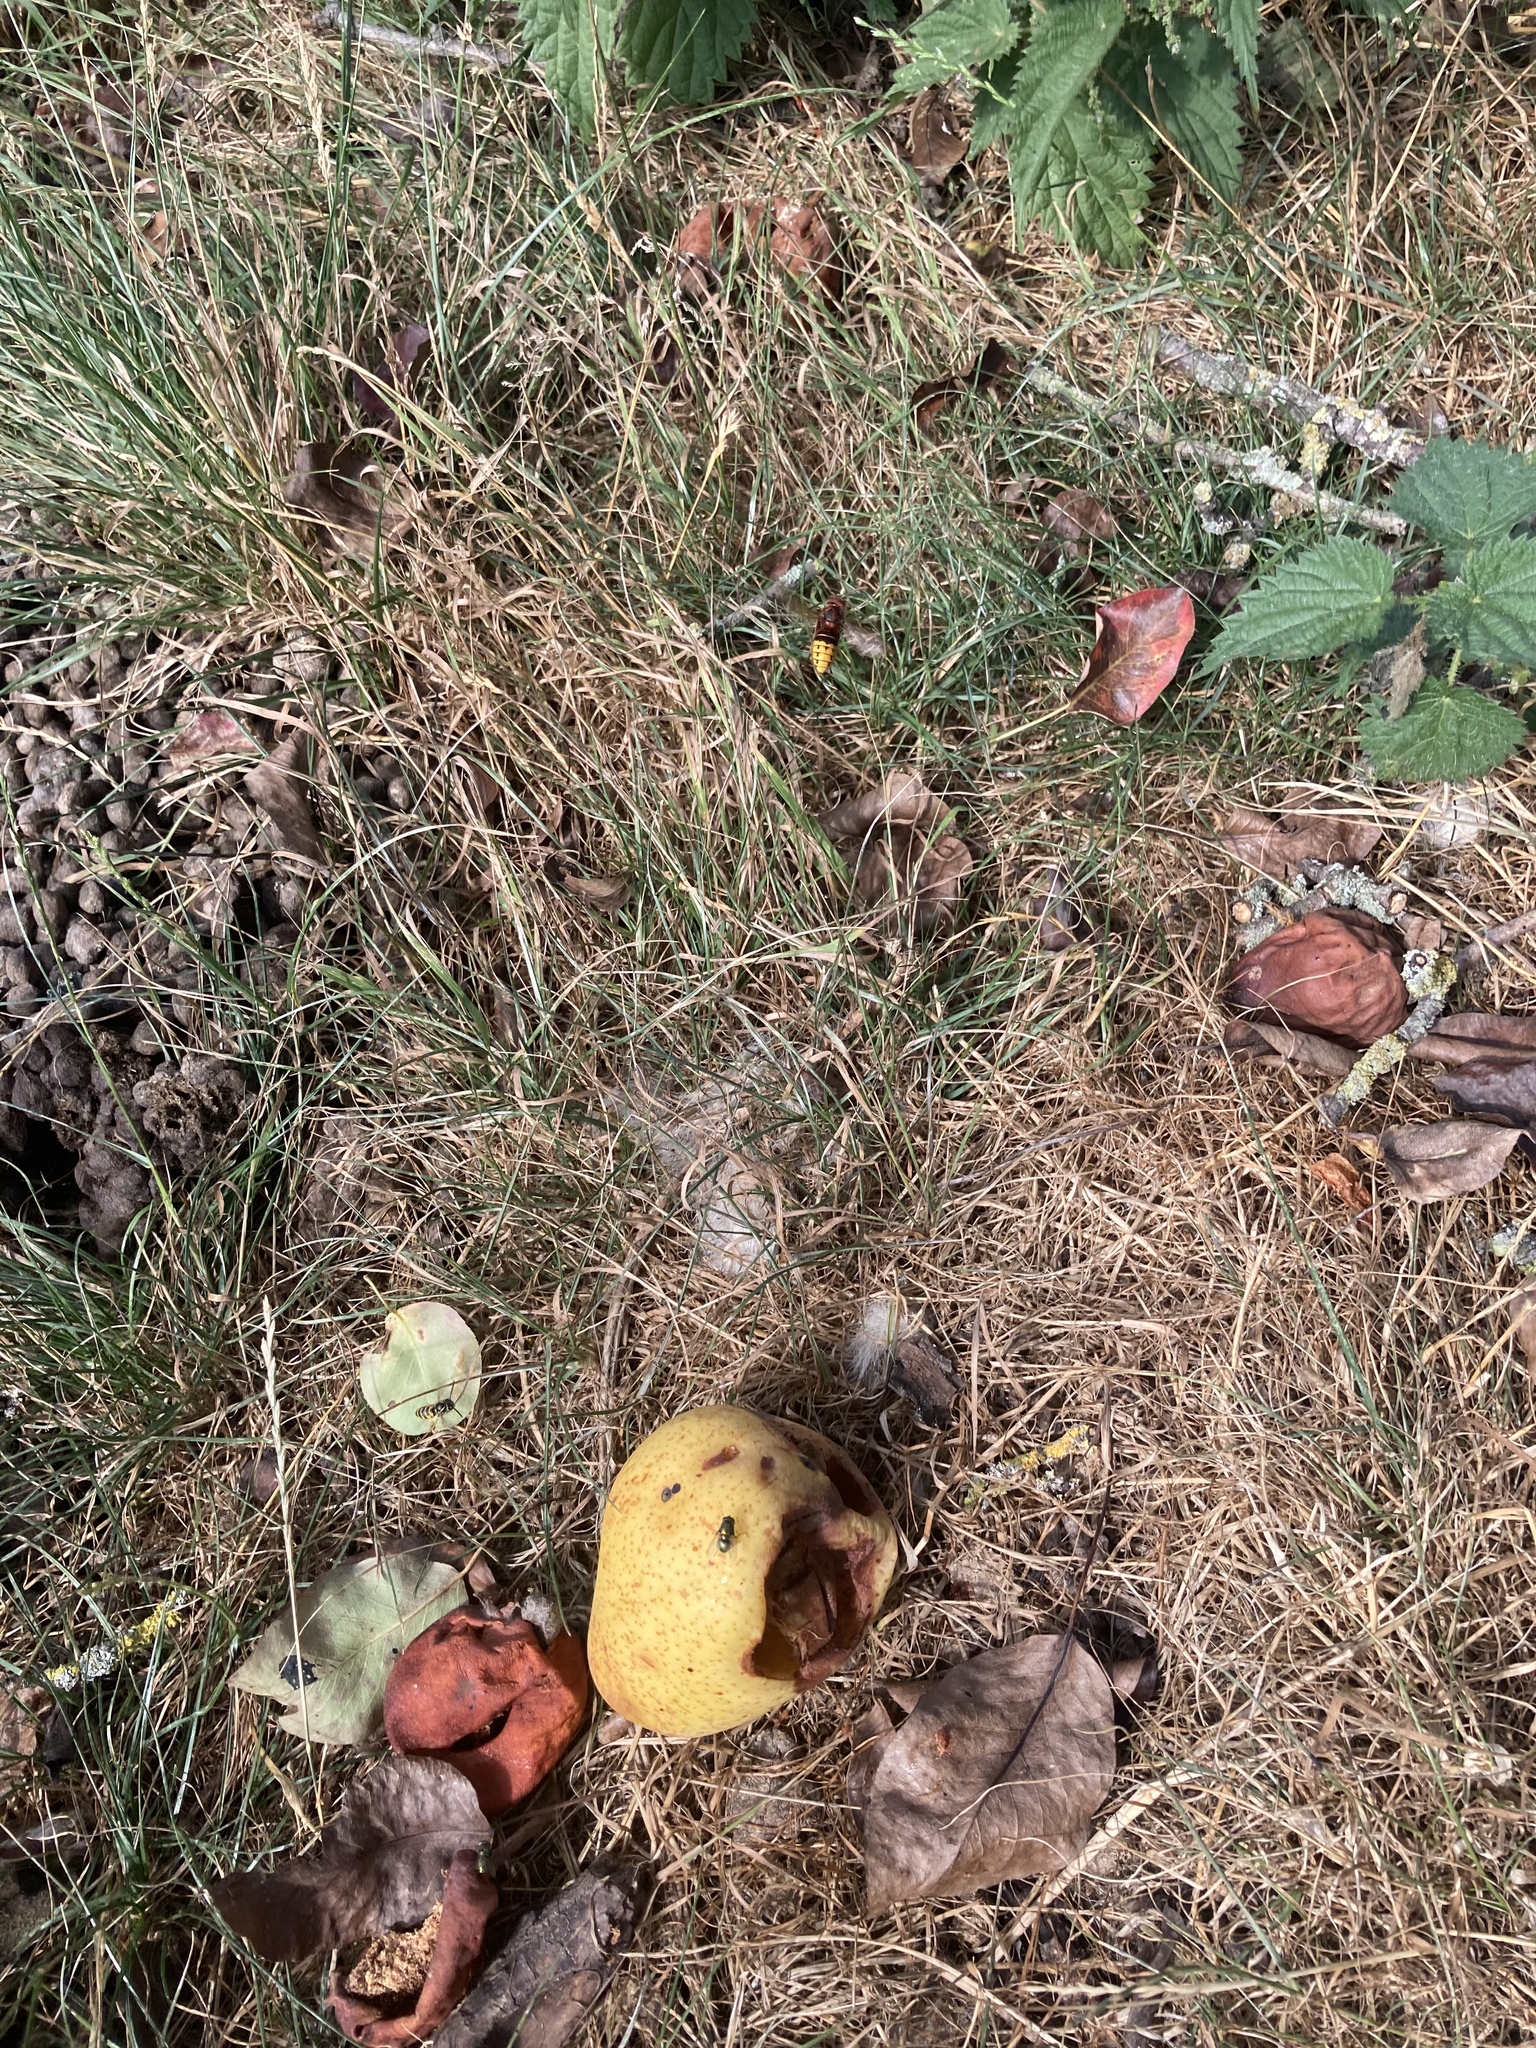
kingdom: Animalia
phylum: Arthropoda
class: Insecta
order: Hymenoptera
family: Vespidae
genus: Vespa
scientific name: Vespa crabro
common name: Hornet
